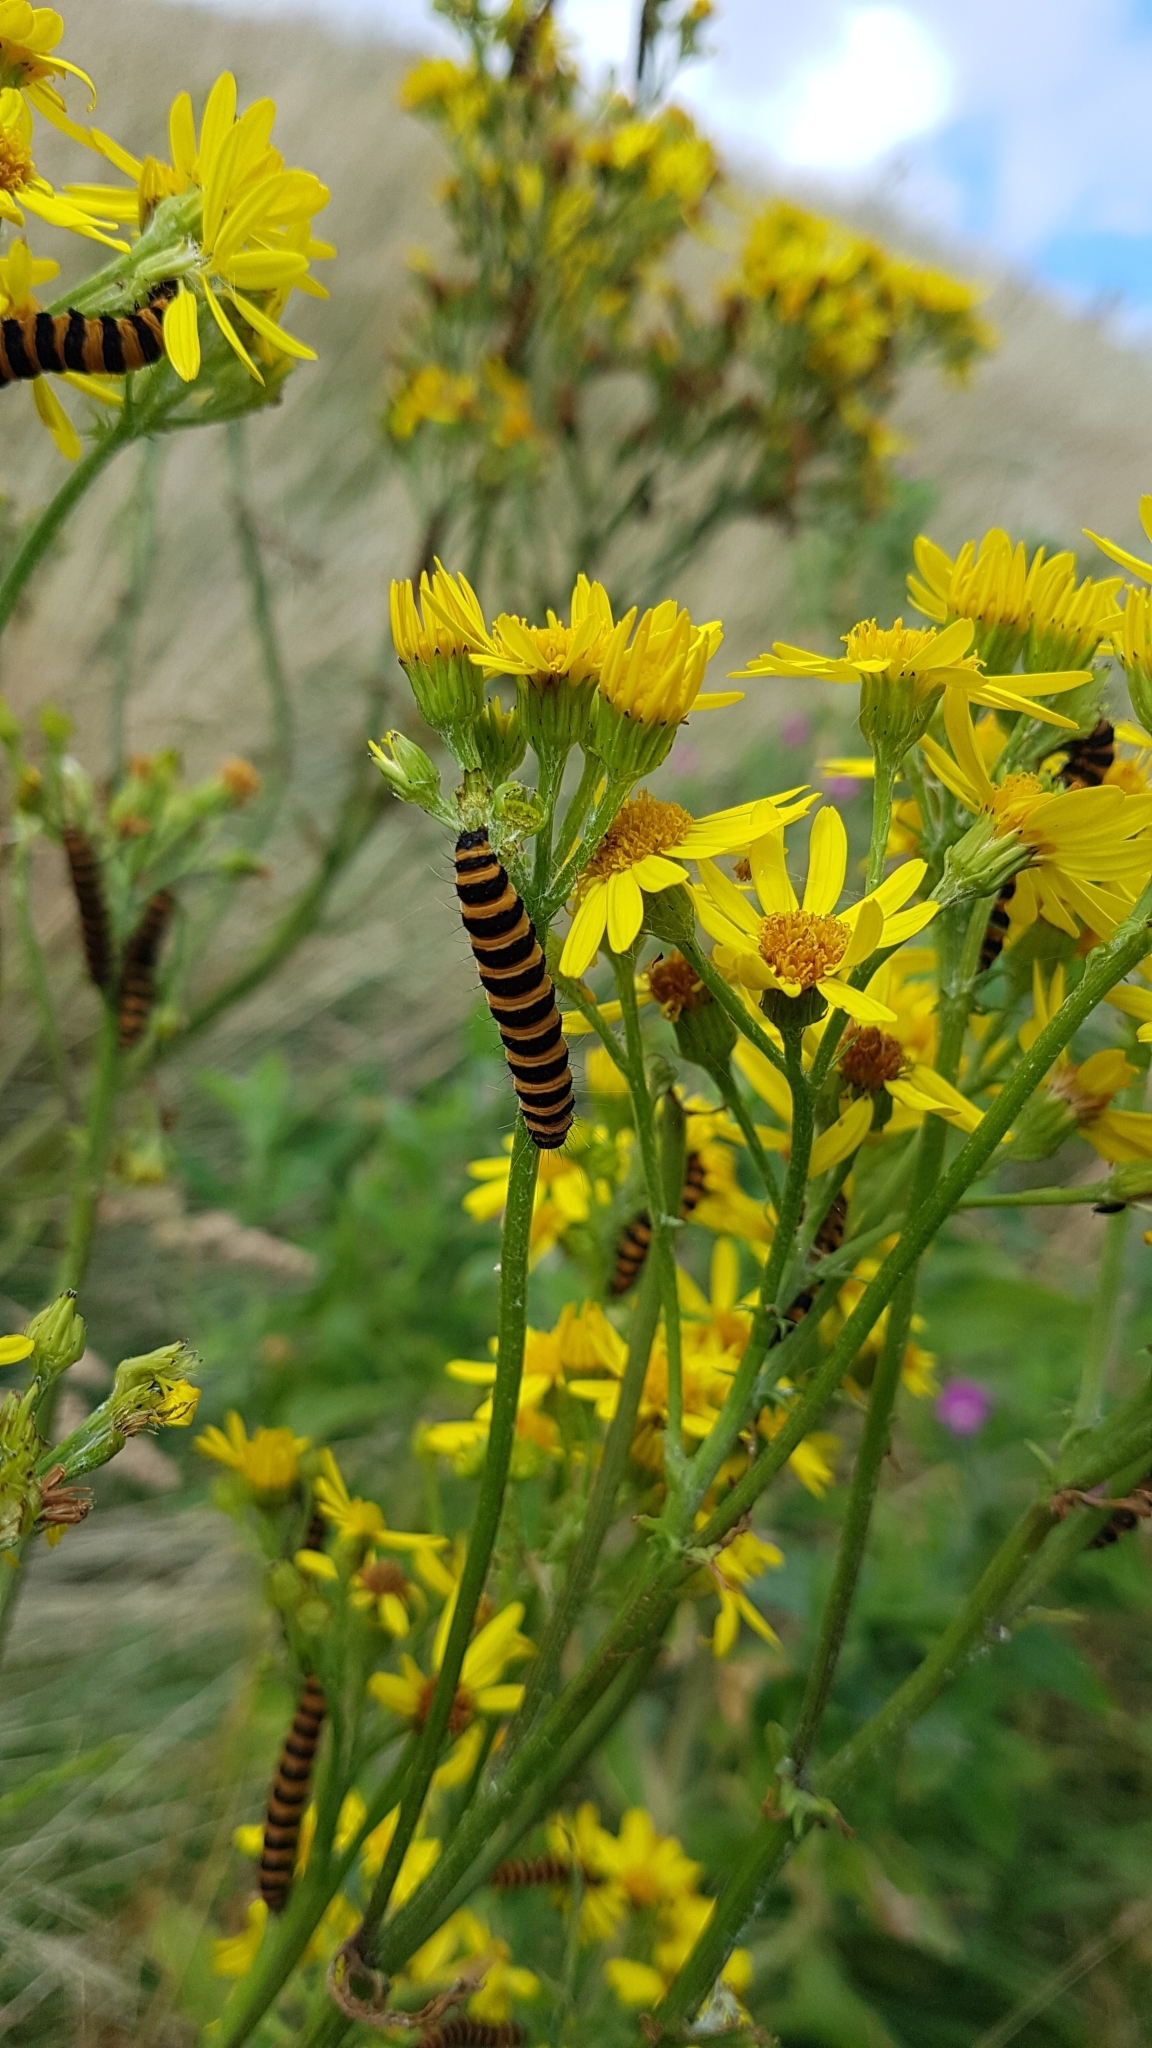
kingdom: Animalia
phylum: Arthropoda
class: Insecta
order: Lepidoptera
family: Erebidae
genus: Tyria
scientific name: Tyria jacobaeae
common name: Cinnabar
